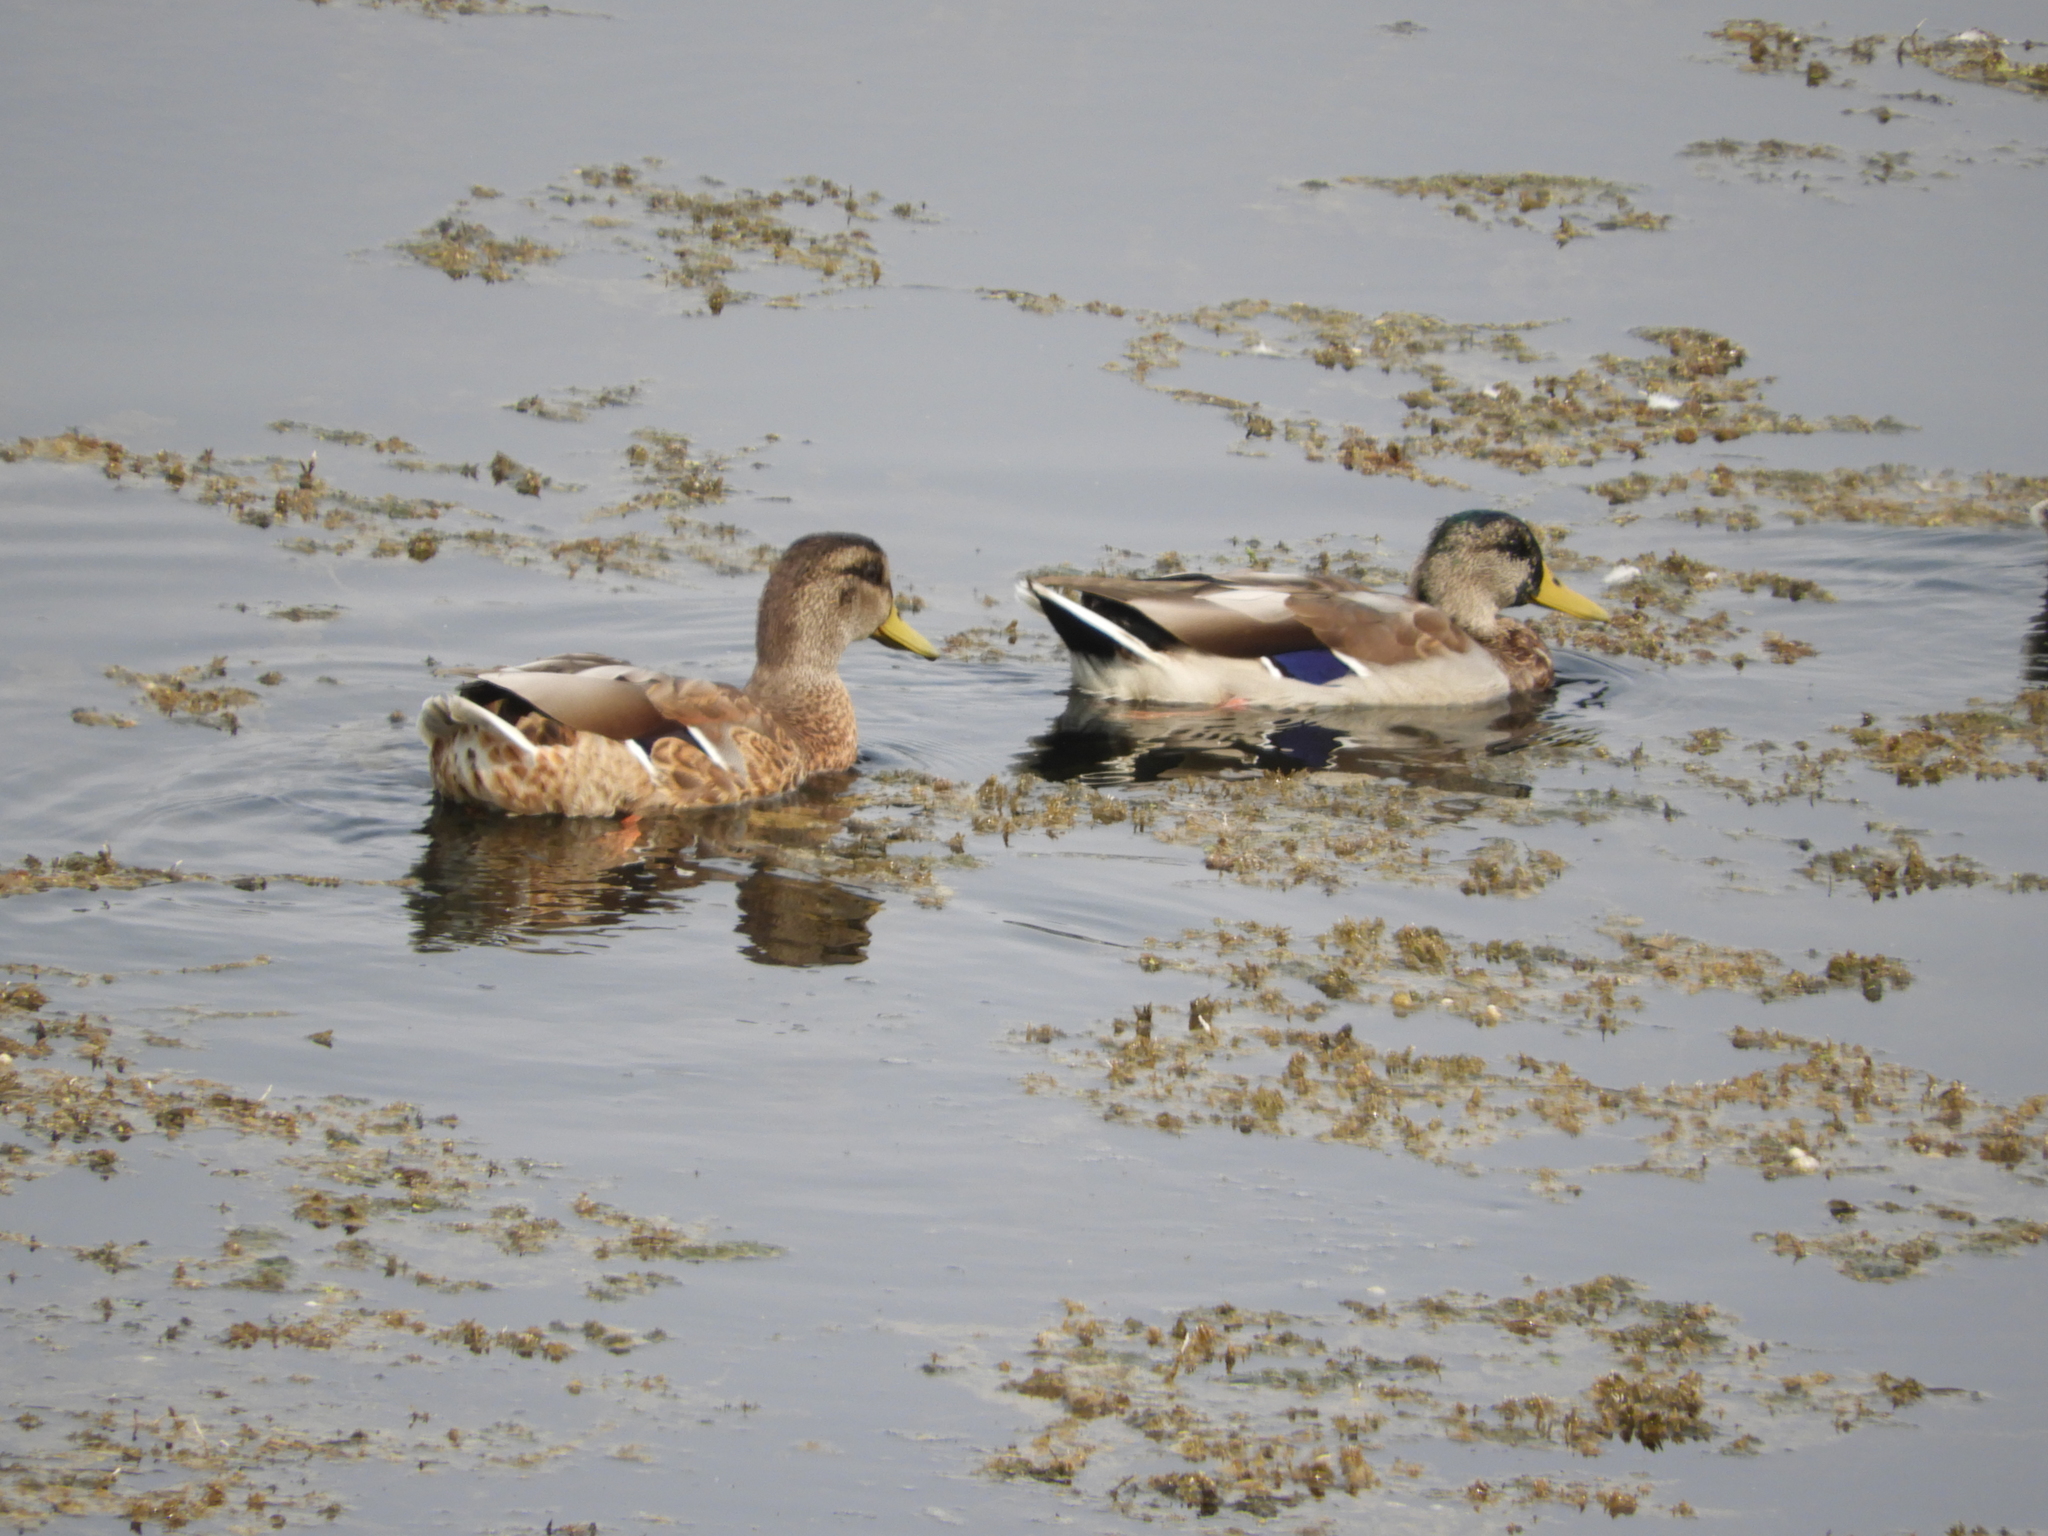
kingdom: Animalia
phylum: Chordata
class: Aves
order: Anseriformes
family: Anatidae
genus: Anas
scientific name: Anas platyrhynchos
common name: Mallard
